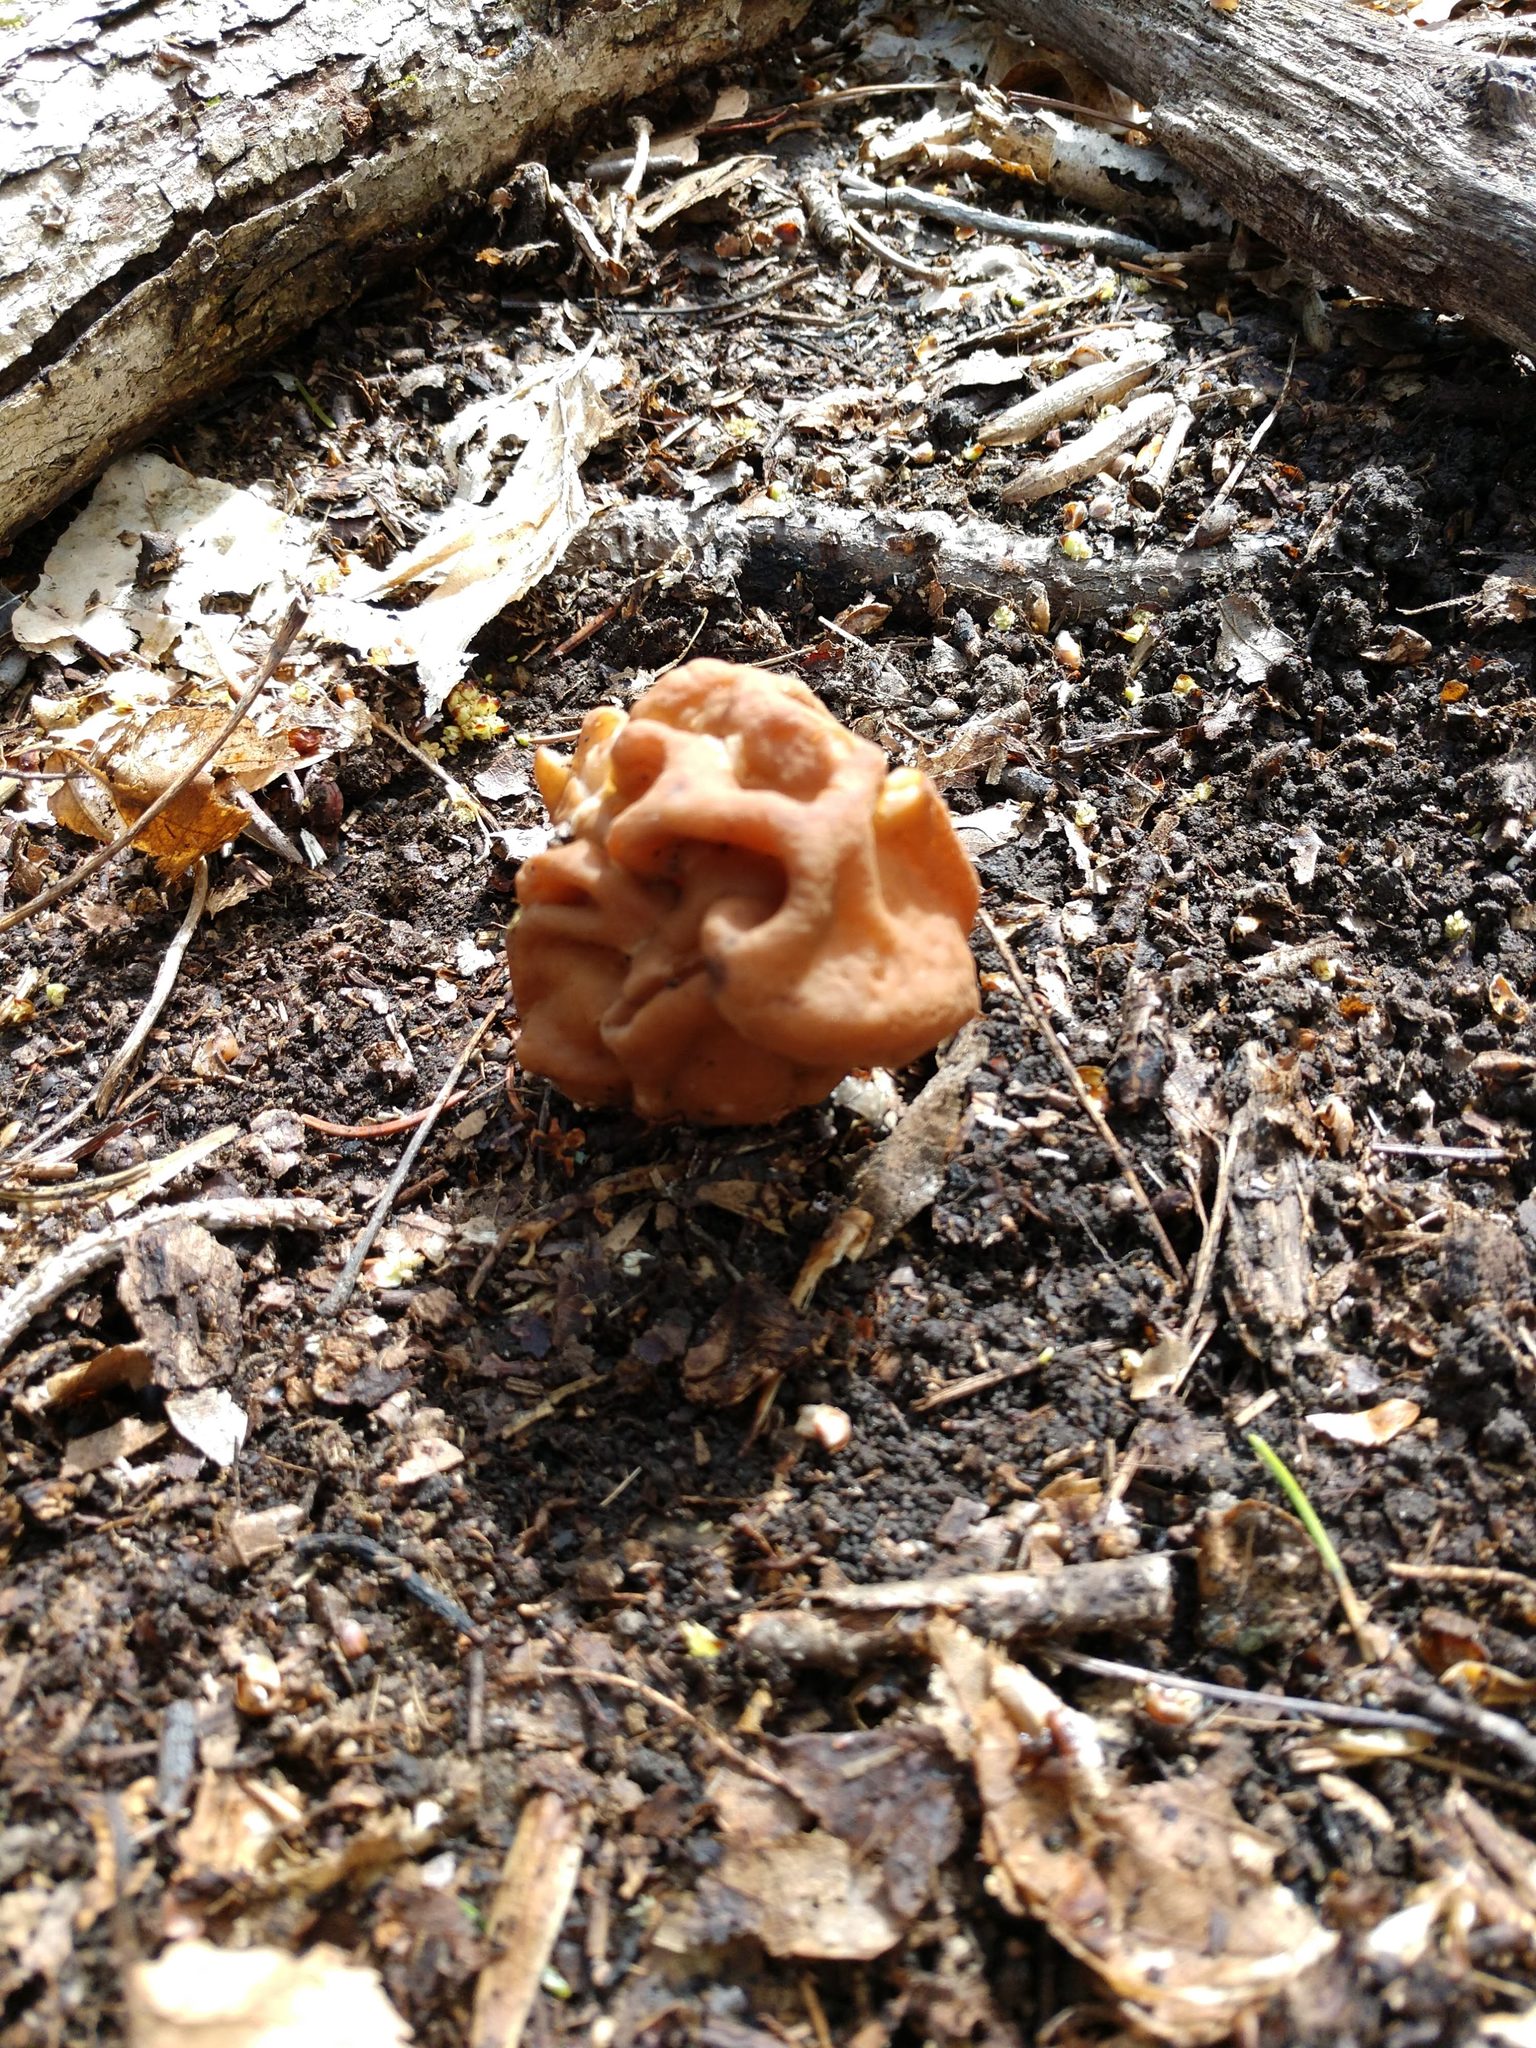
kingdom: Fungi
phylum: Ascomycota
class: Pezizomycetes
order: Pezizales
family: Discinaceae
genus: Gyromitra
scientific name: Gyromitra korfii
